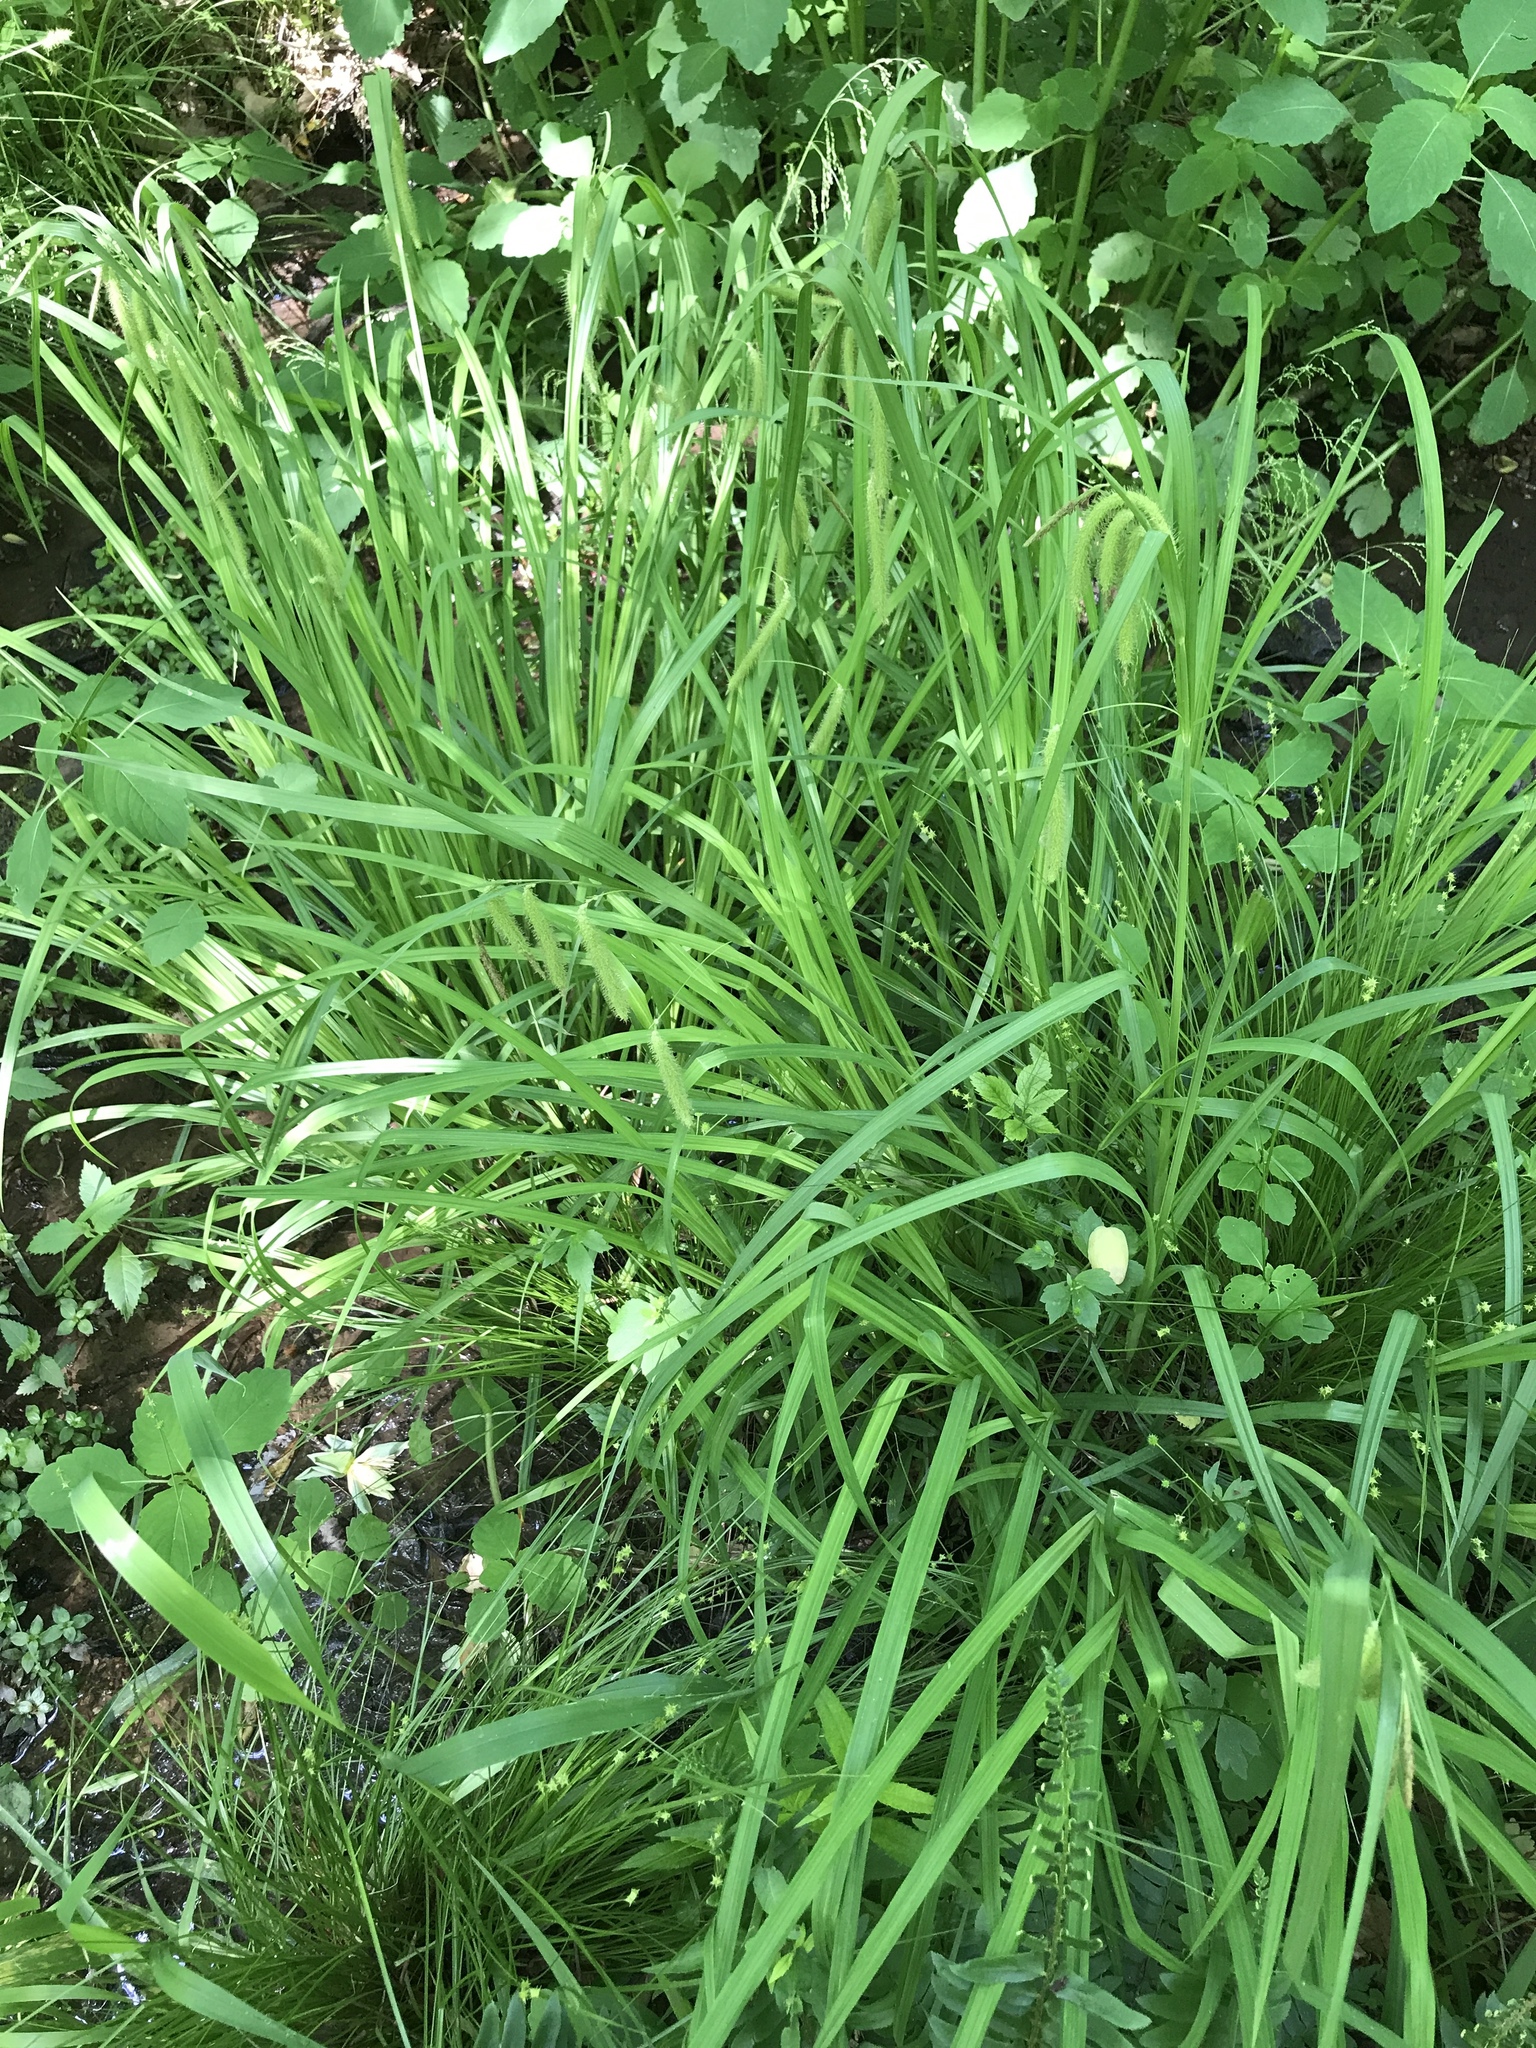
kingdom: Plantae
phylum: Tracheophyta
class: Liliopsida
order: Poales
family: Cyperaceae
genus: Carex
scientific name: Carex crinita
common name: Fringed sedge
